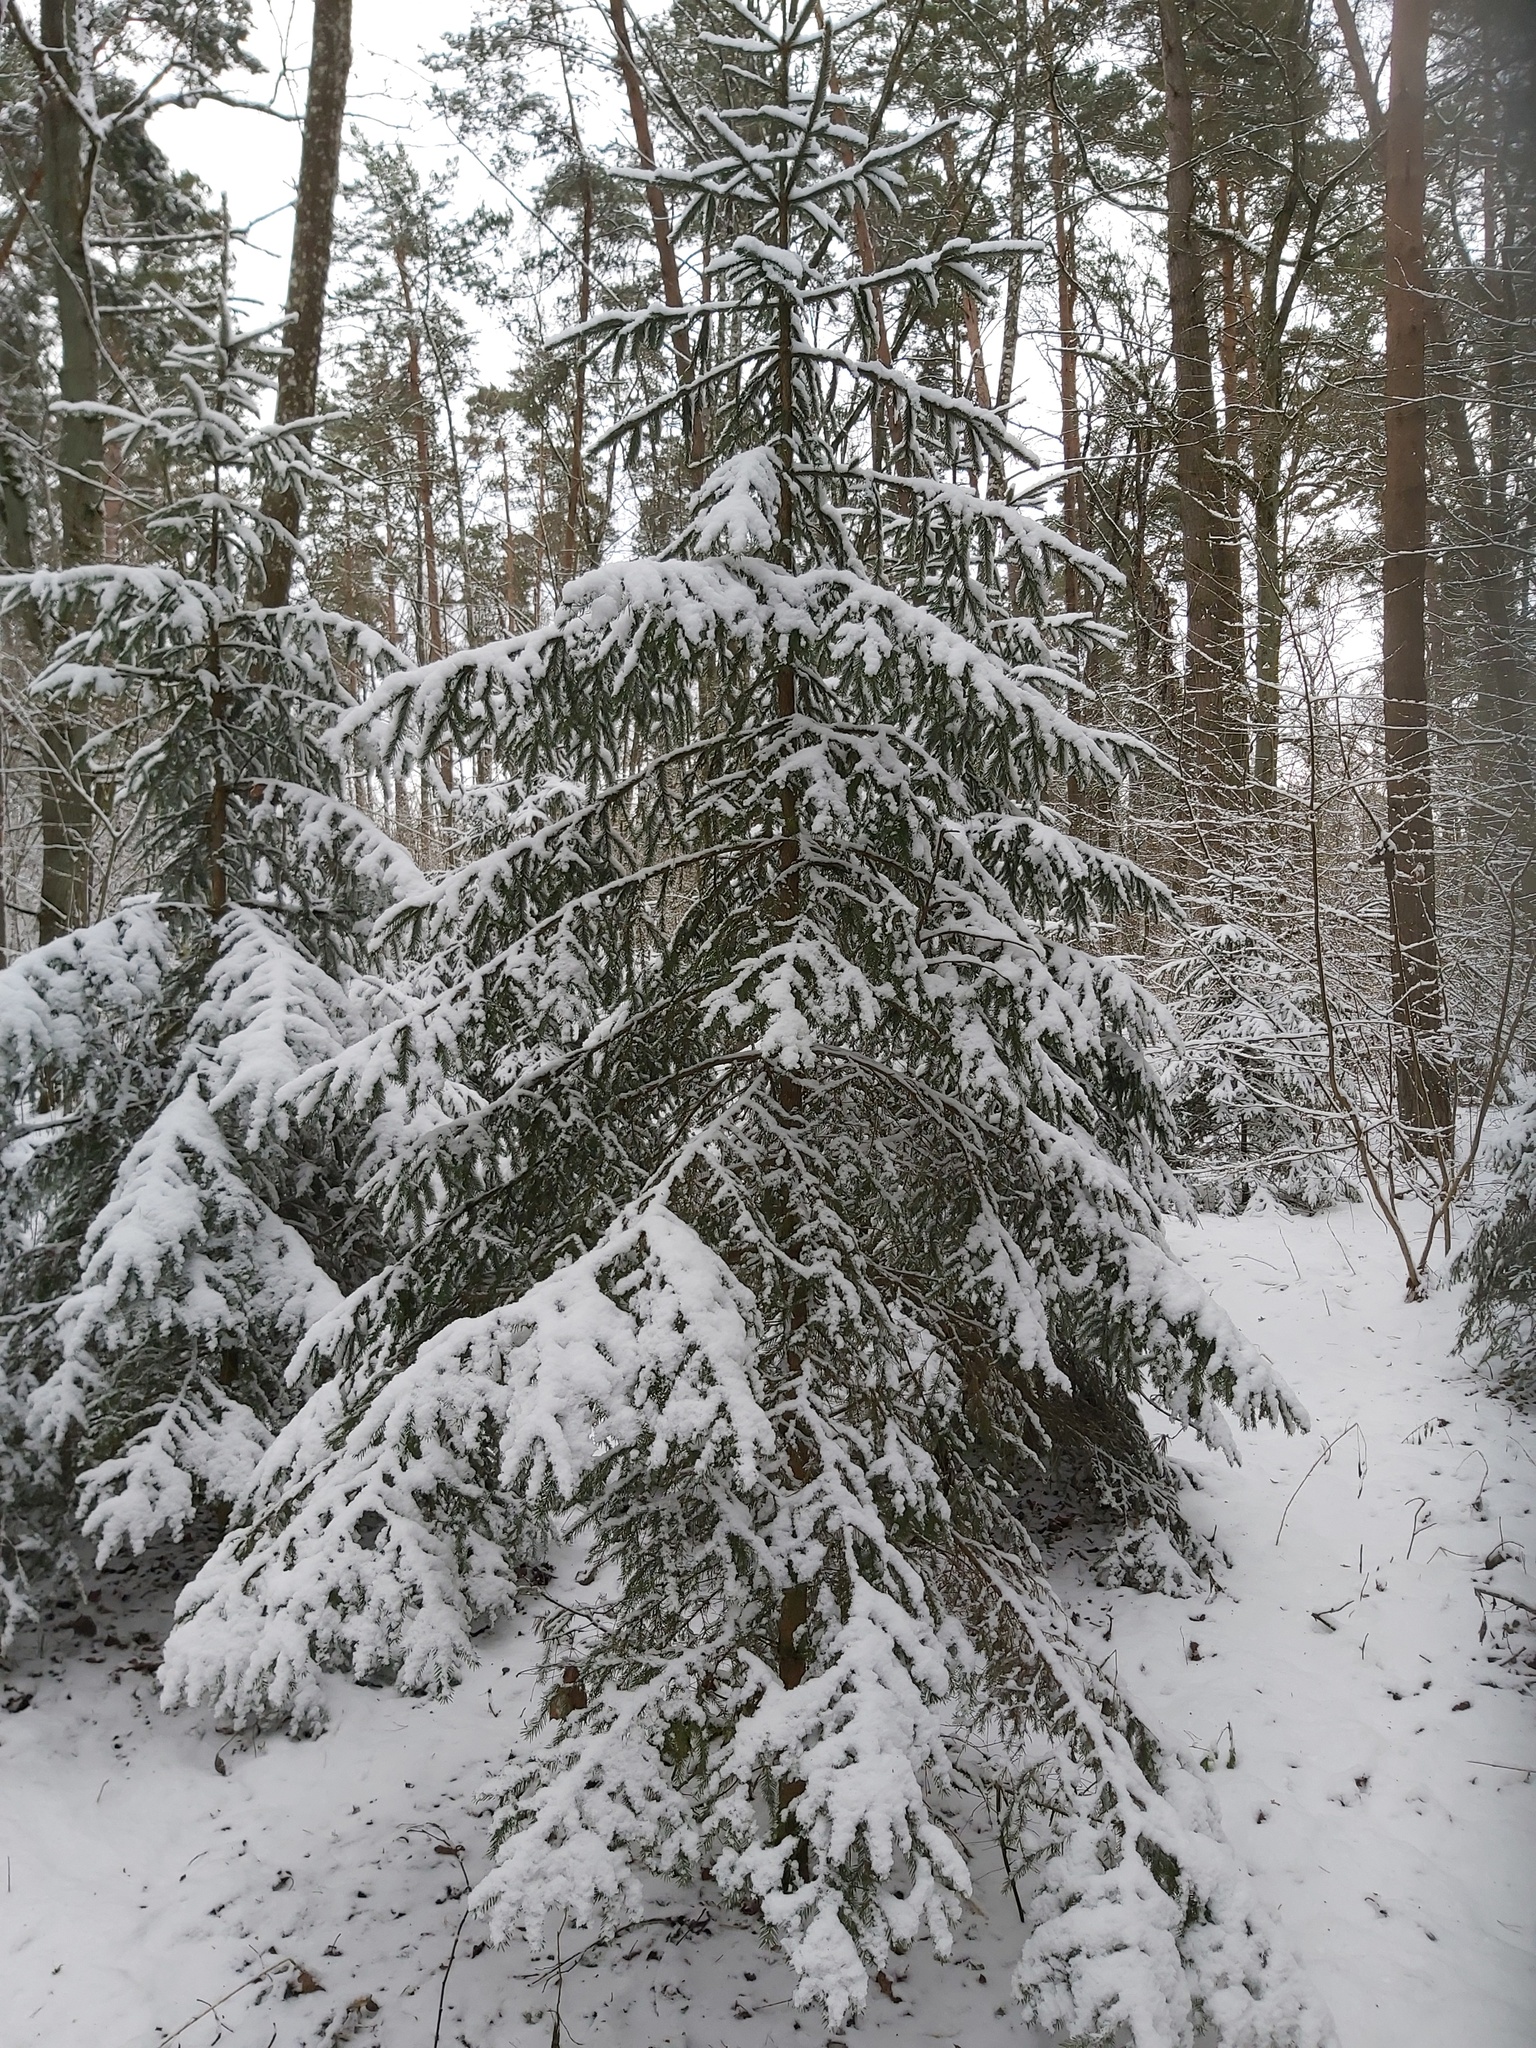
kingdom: Plantae
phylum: Tracheophyta
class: Pinopsida
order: Pinales
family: Pinaceae
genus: Picea
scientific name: Picea abies
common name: Norway spruce
